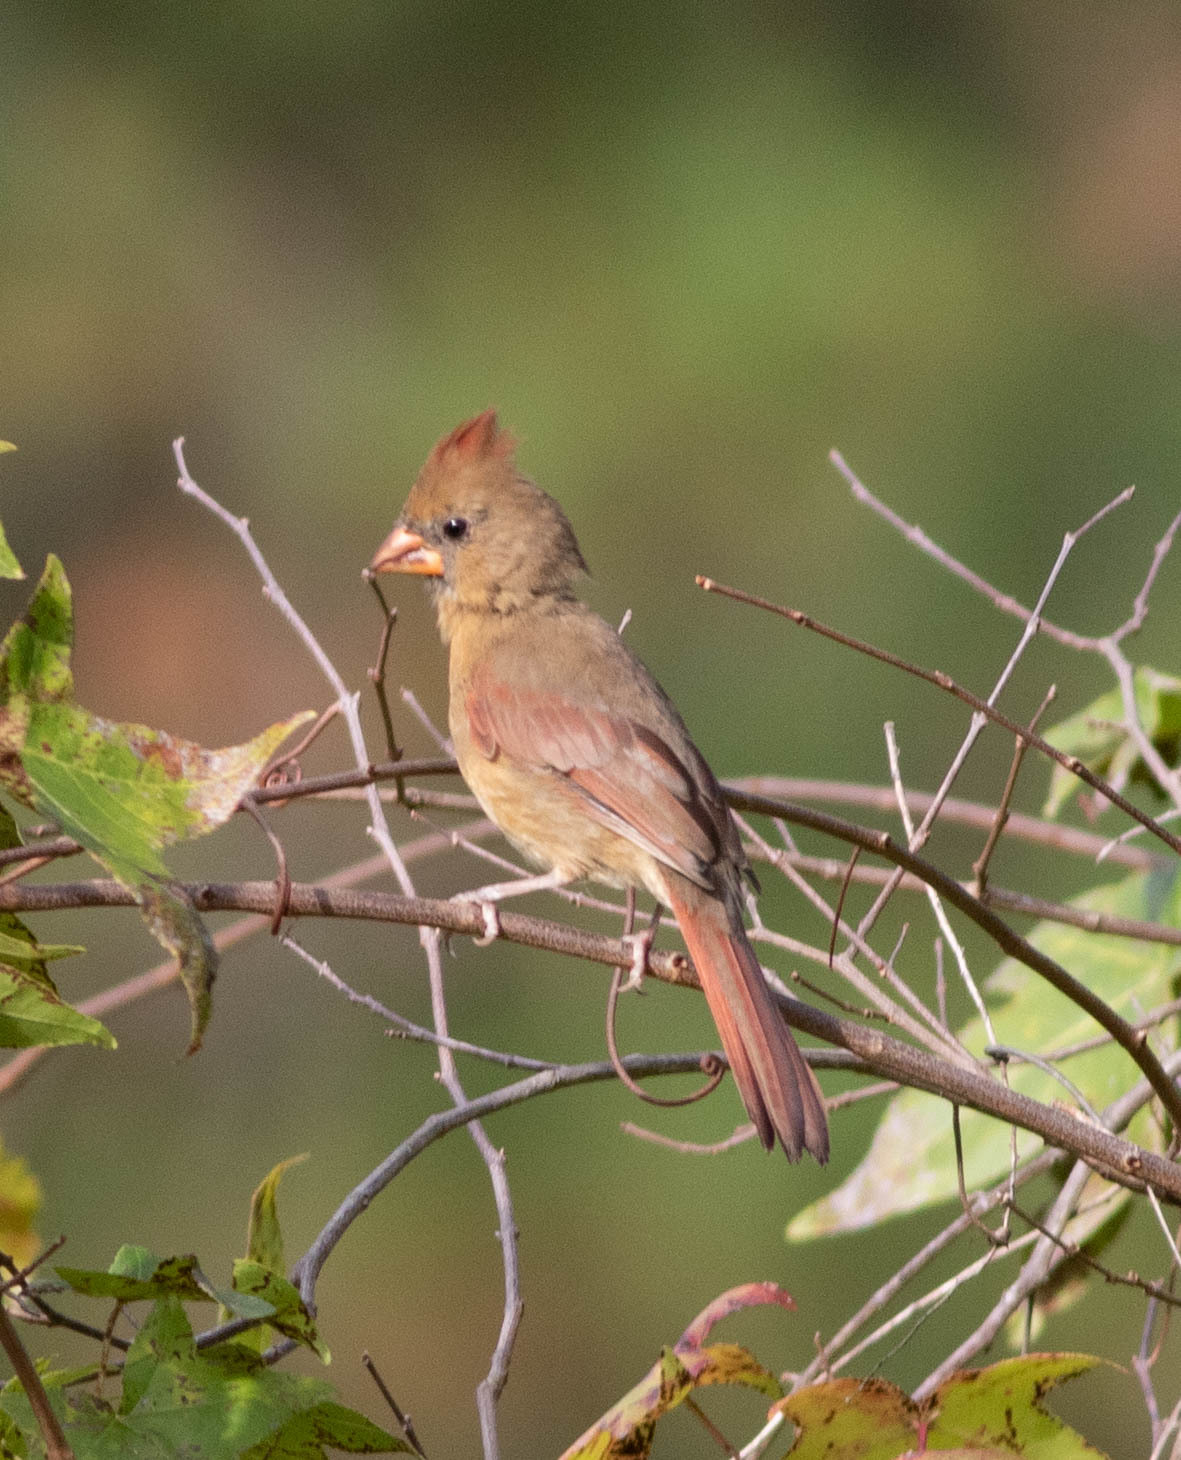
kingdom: Animalia
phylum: Chordata
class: Aves
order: Passeriformes
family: Cardinalidae
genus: Cardinalis
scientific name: Cardinalis cardinalis
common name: Northern cardinal
